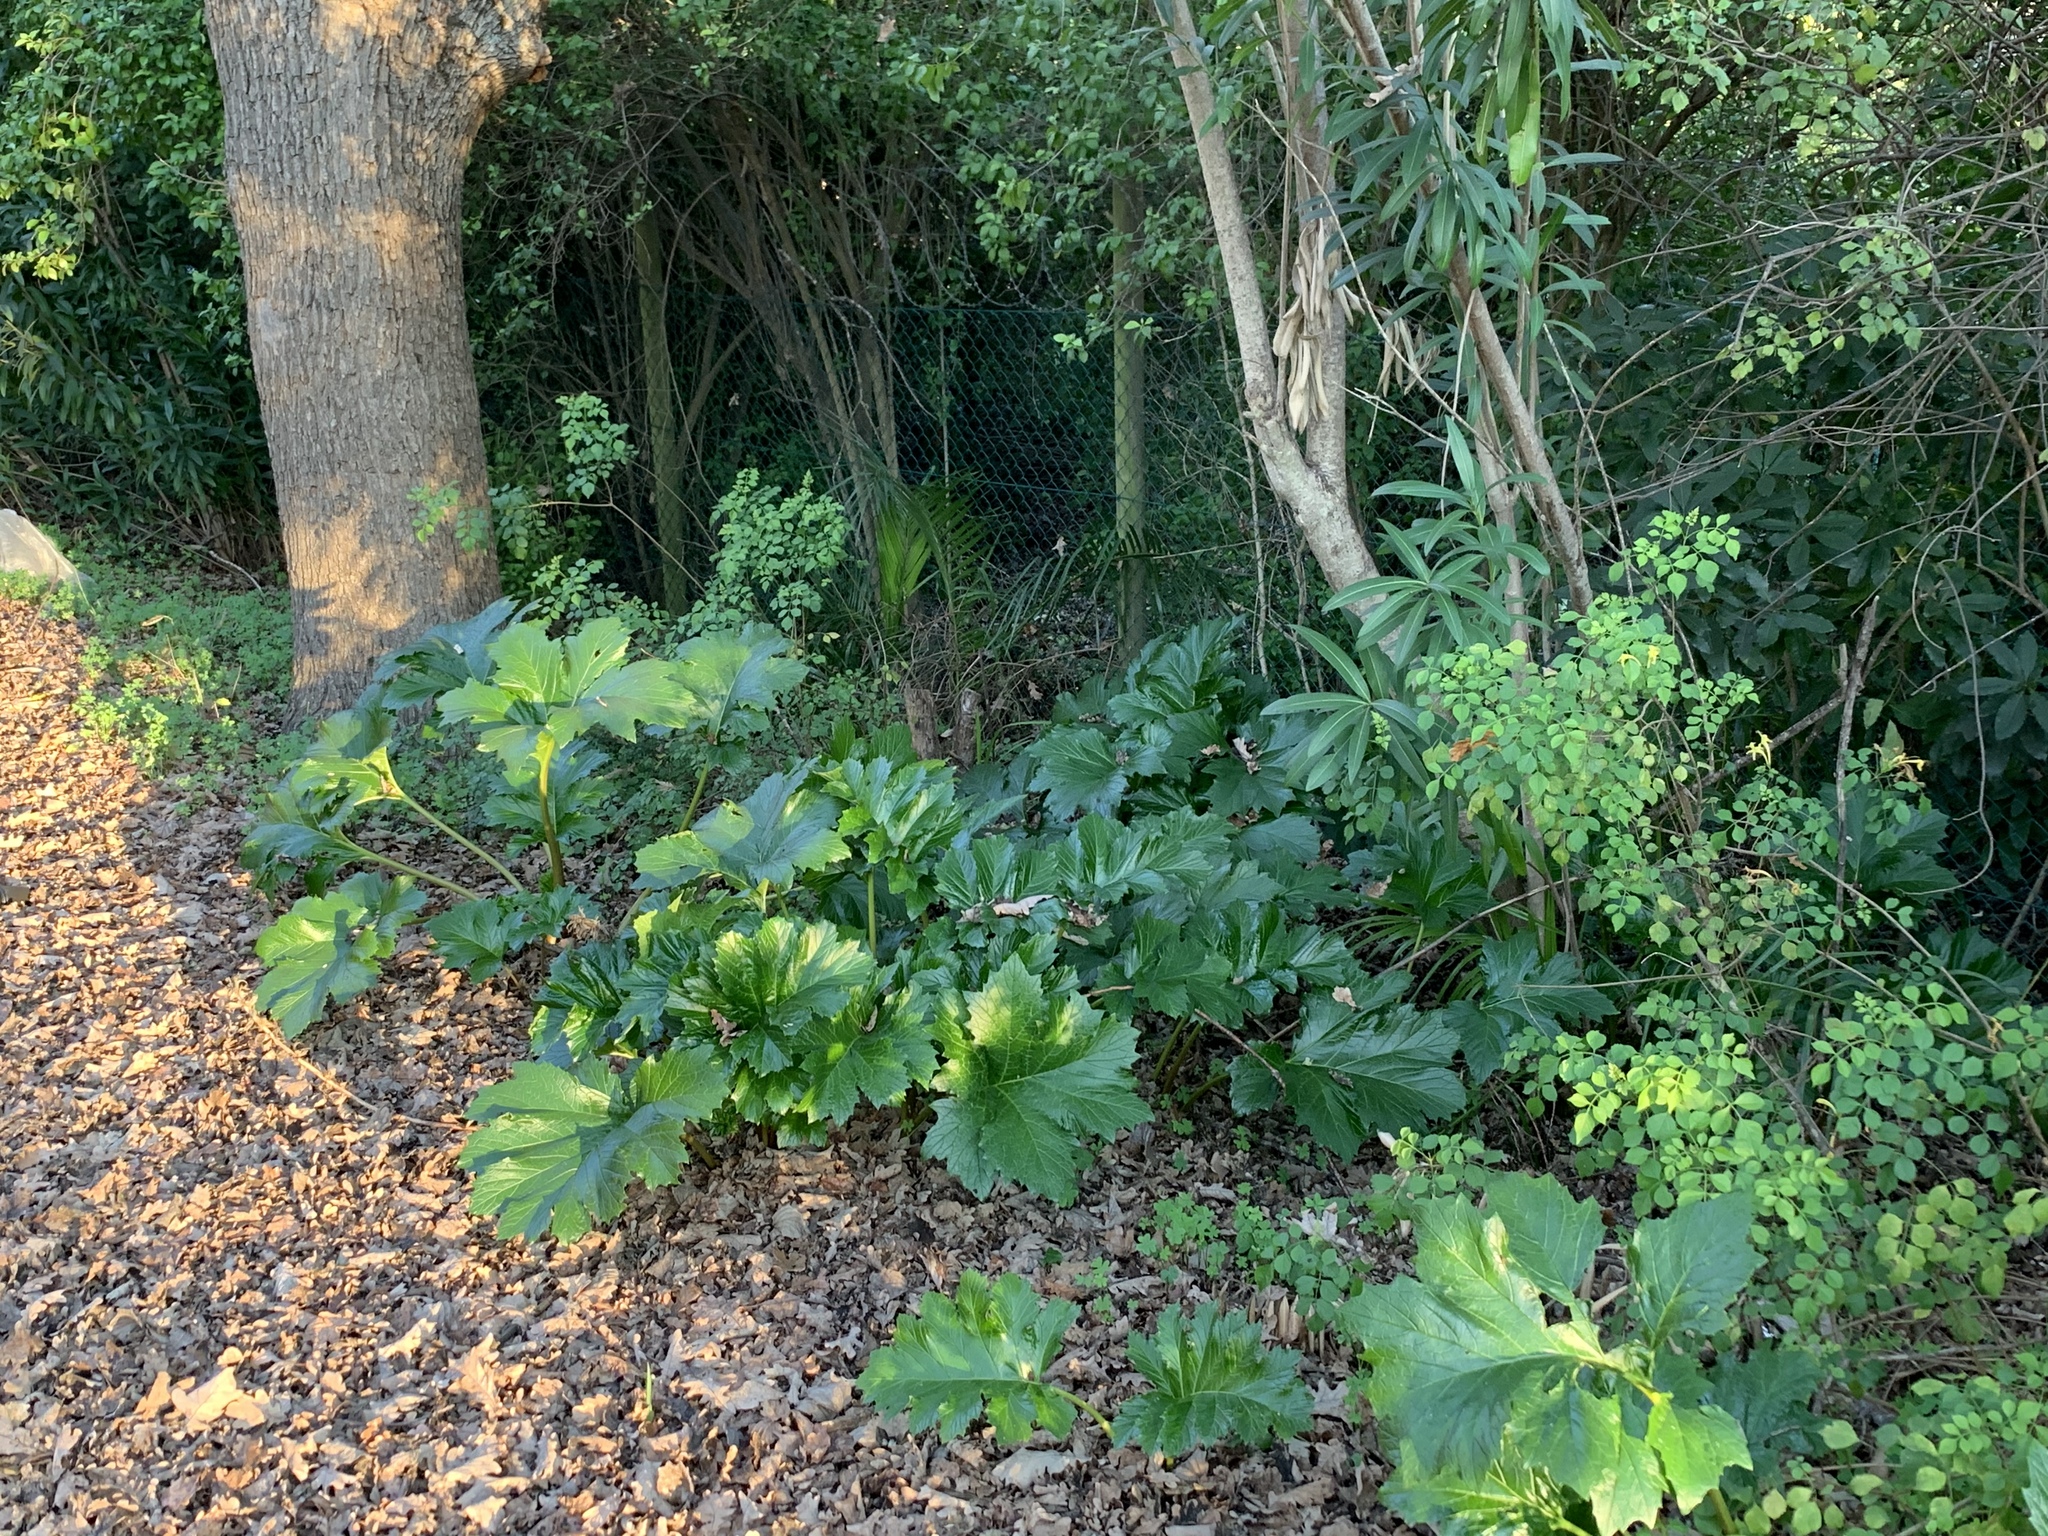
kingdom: Plantae
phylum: Tracheophyta
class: Magnoliopsida
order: Lamiales
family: Acanthaceae
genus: Acanthus
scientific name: Acanthus mollis
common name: Bear's-breech
